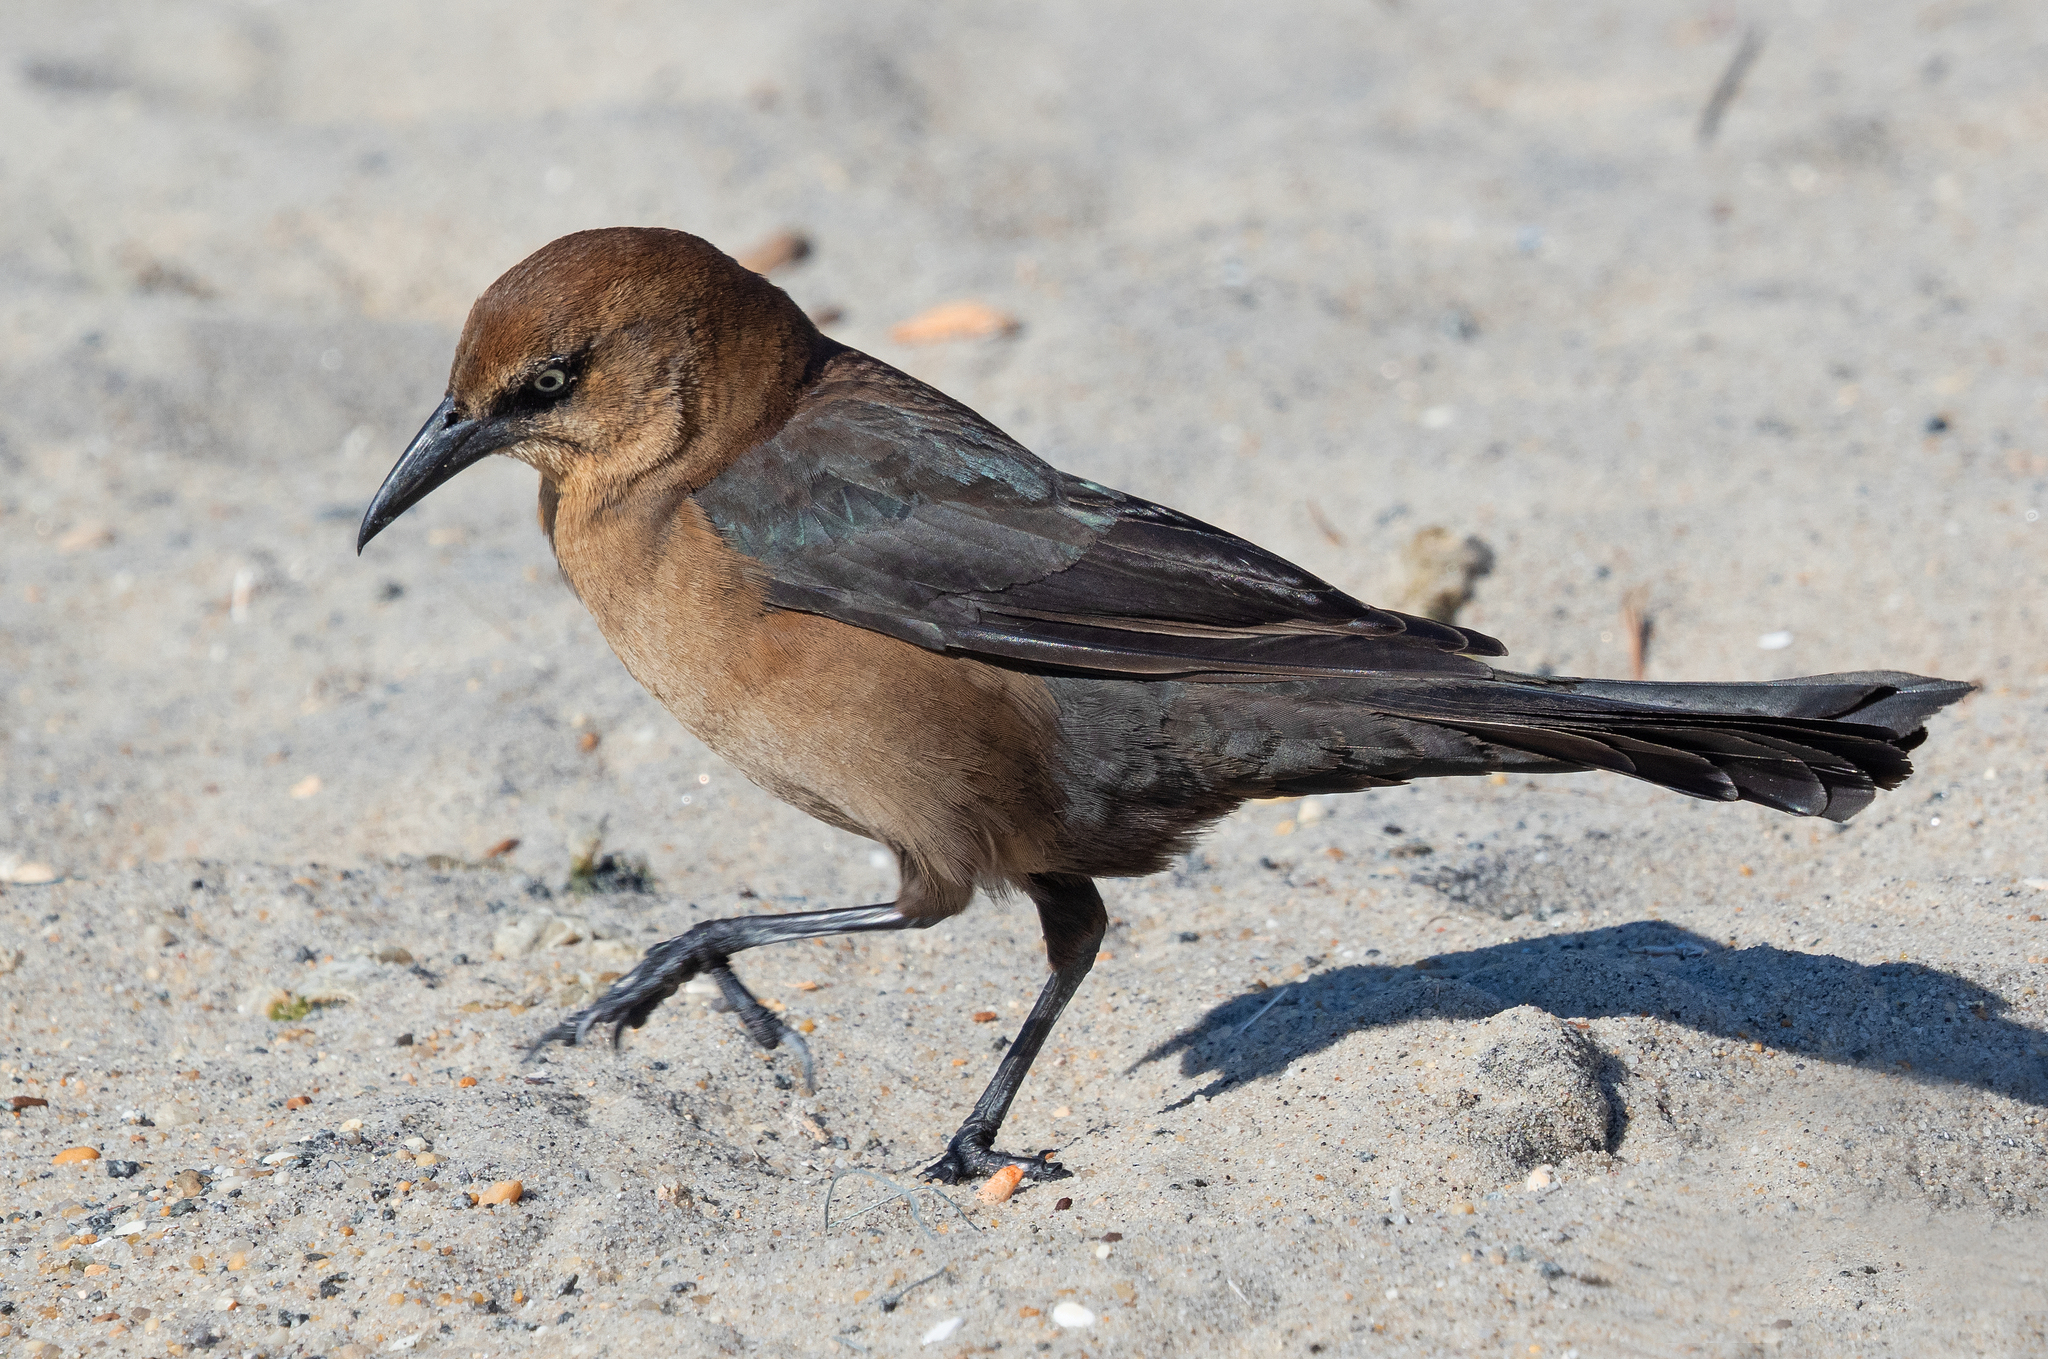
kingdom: Animalia
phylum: Chordata
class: Aves
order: Passeriformes
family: Icteridae
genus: Quiscalus
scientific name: Quiscalus major
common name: Boat-tailed grackle
